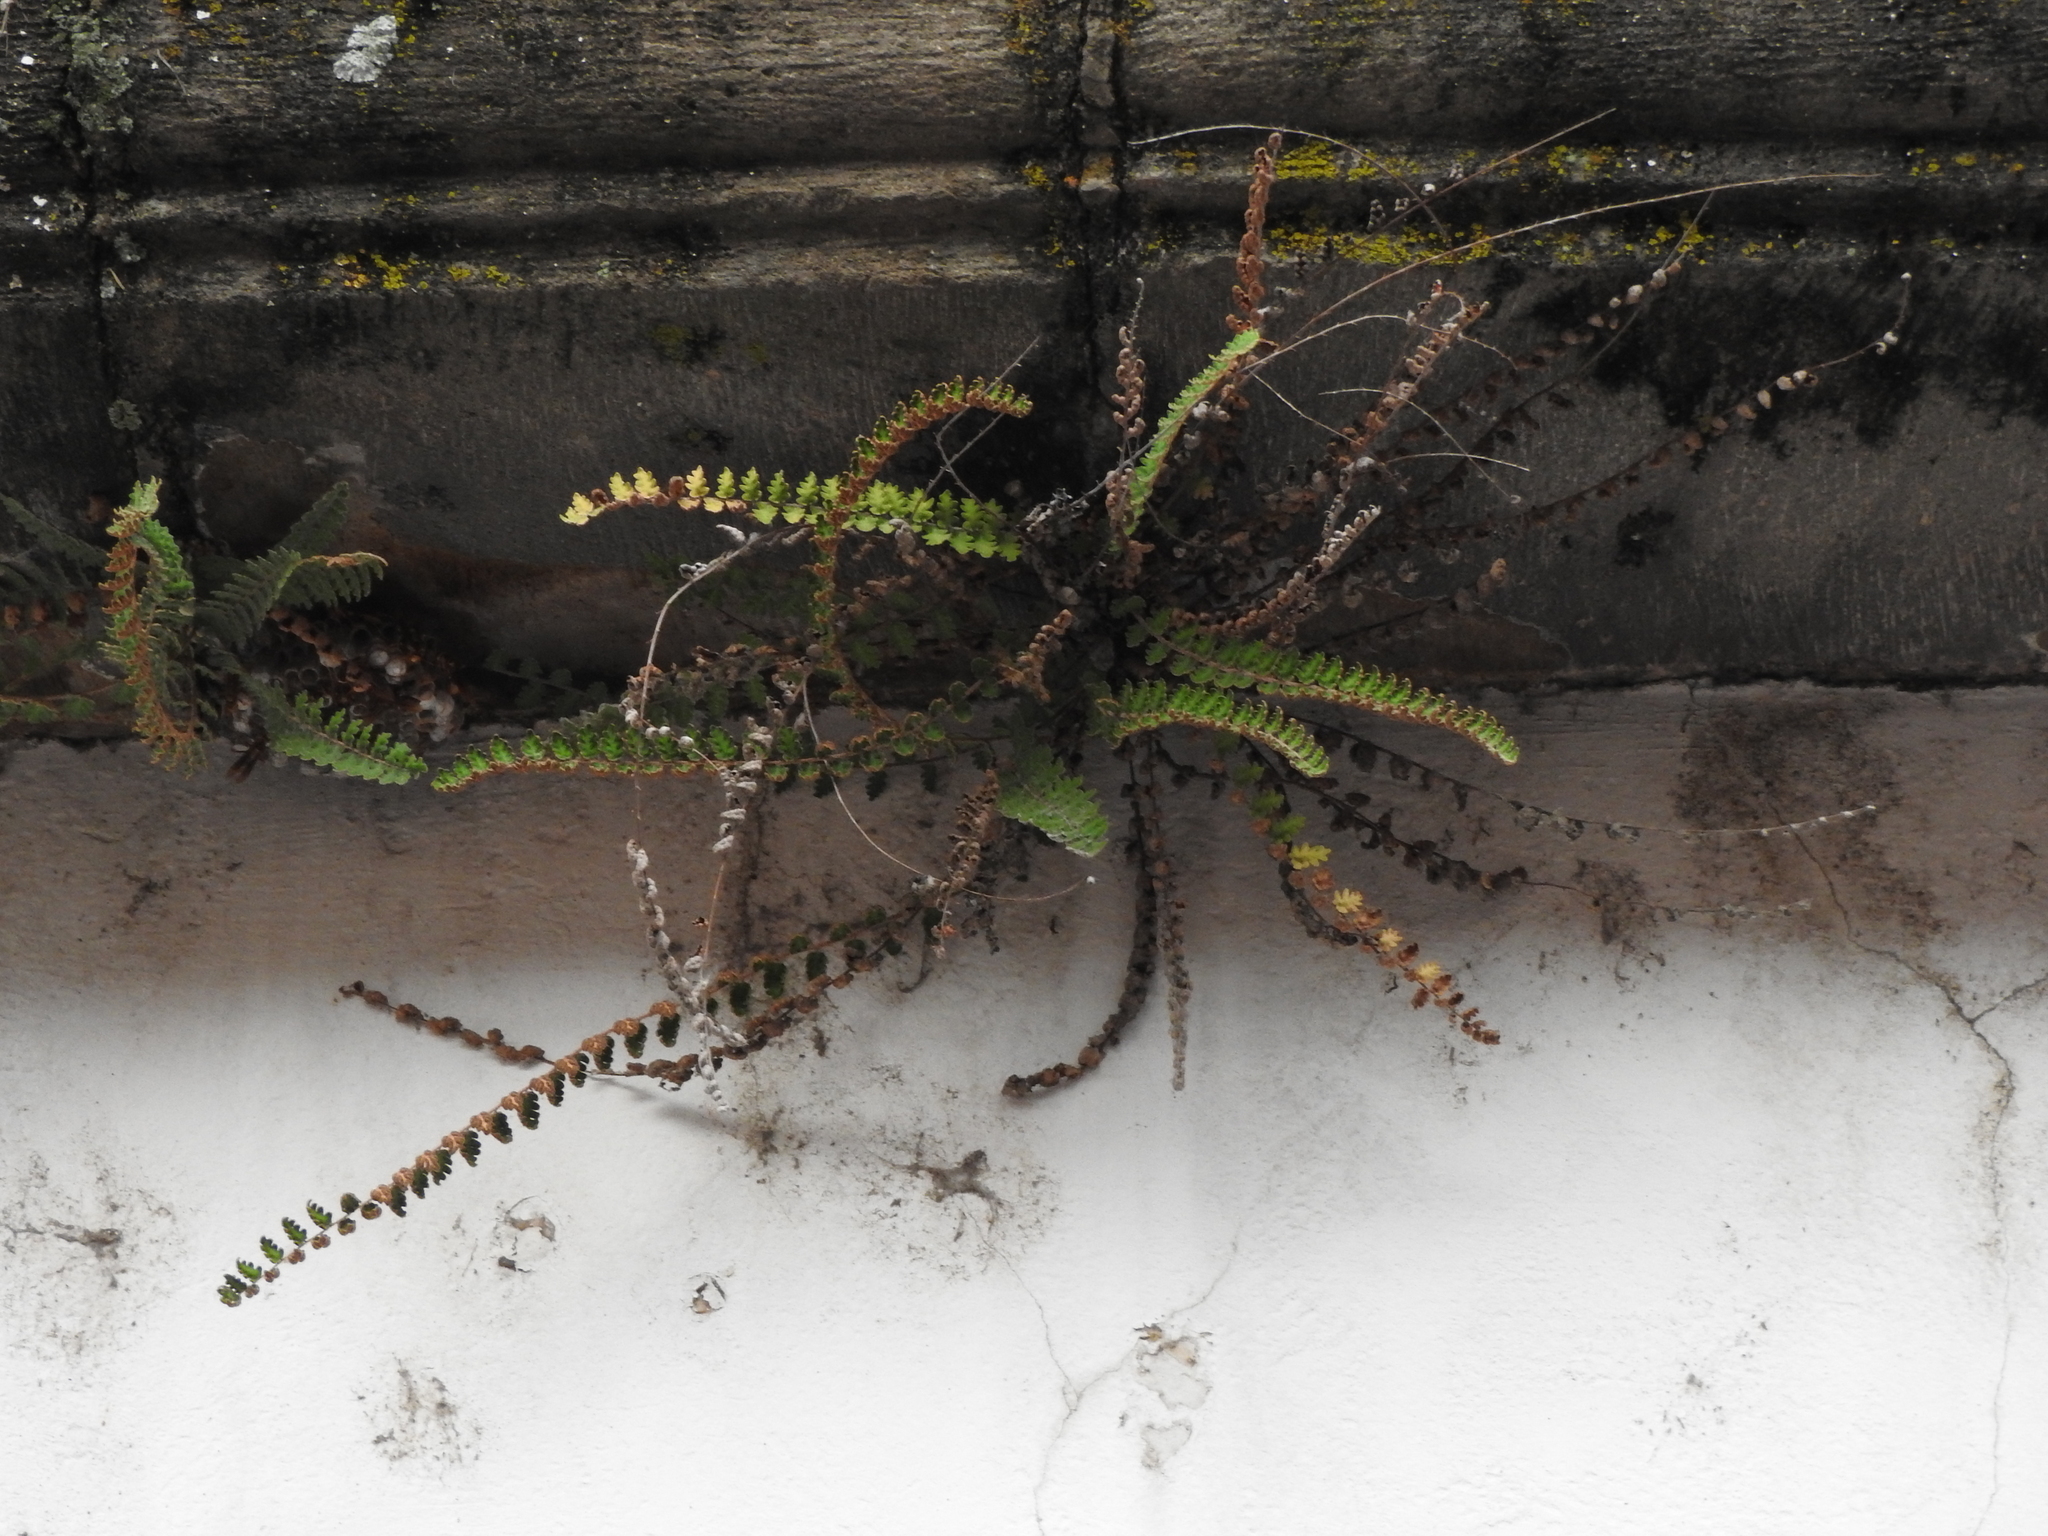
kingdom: Plantae
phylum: Tracheophyta
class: Polypodiopsida
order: Polypodiales
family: Pteridaceae
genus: Astrolepis
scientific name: Astrolepis sinuata
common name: Wavy scaly cloakfern
